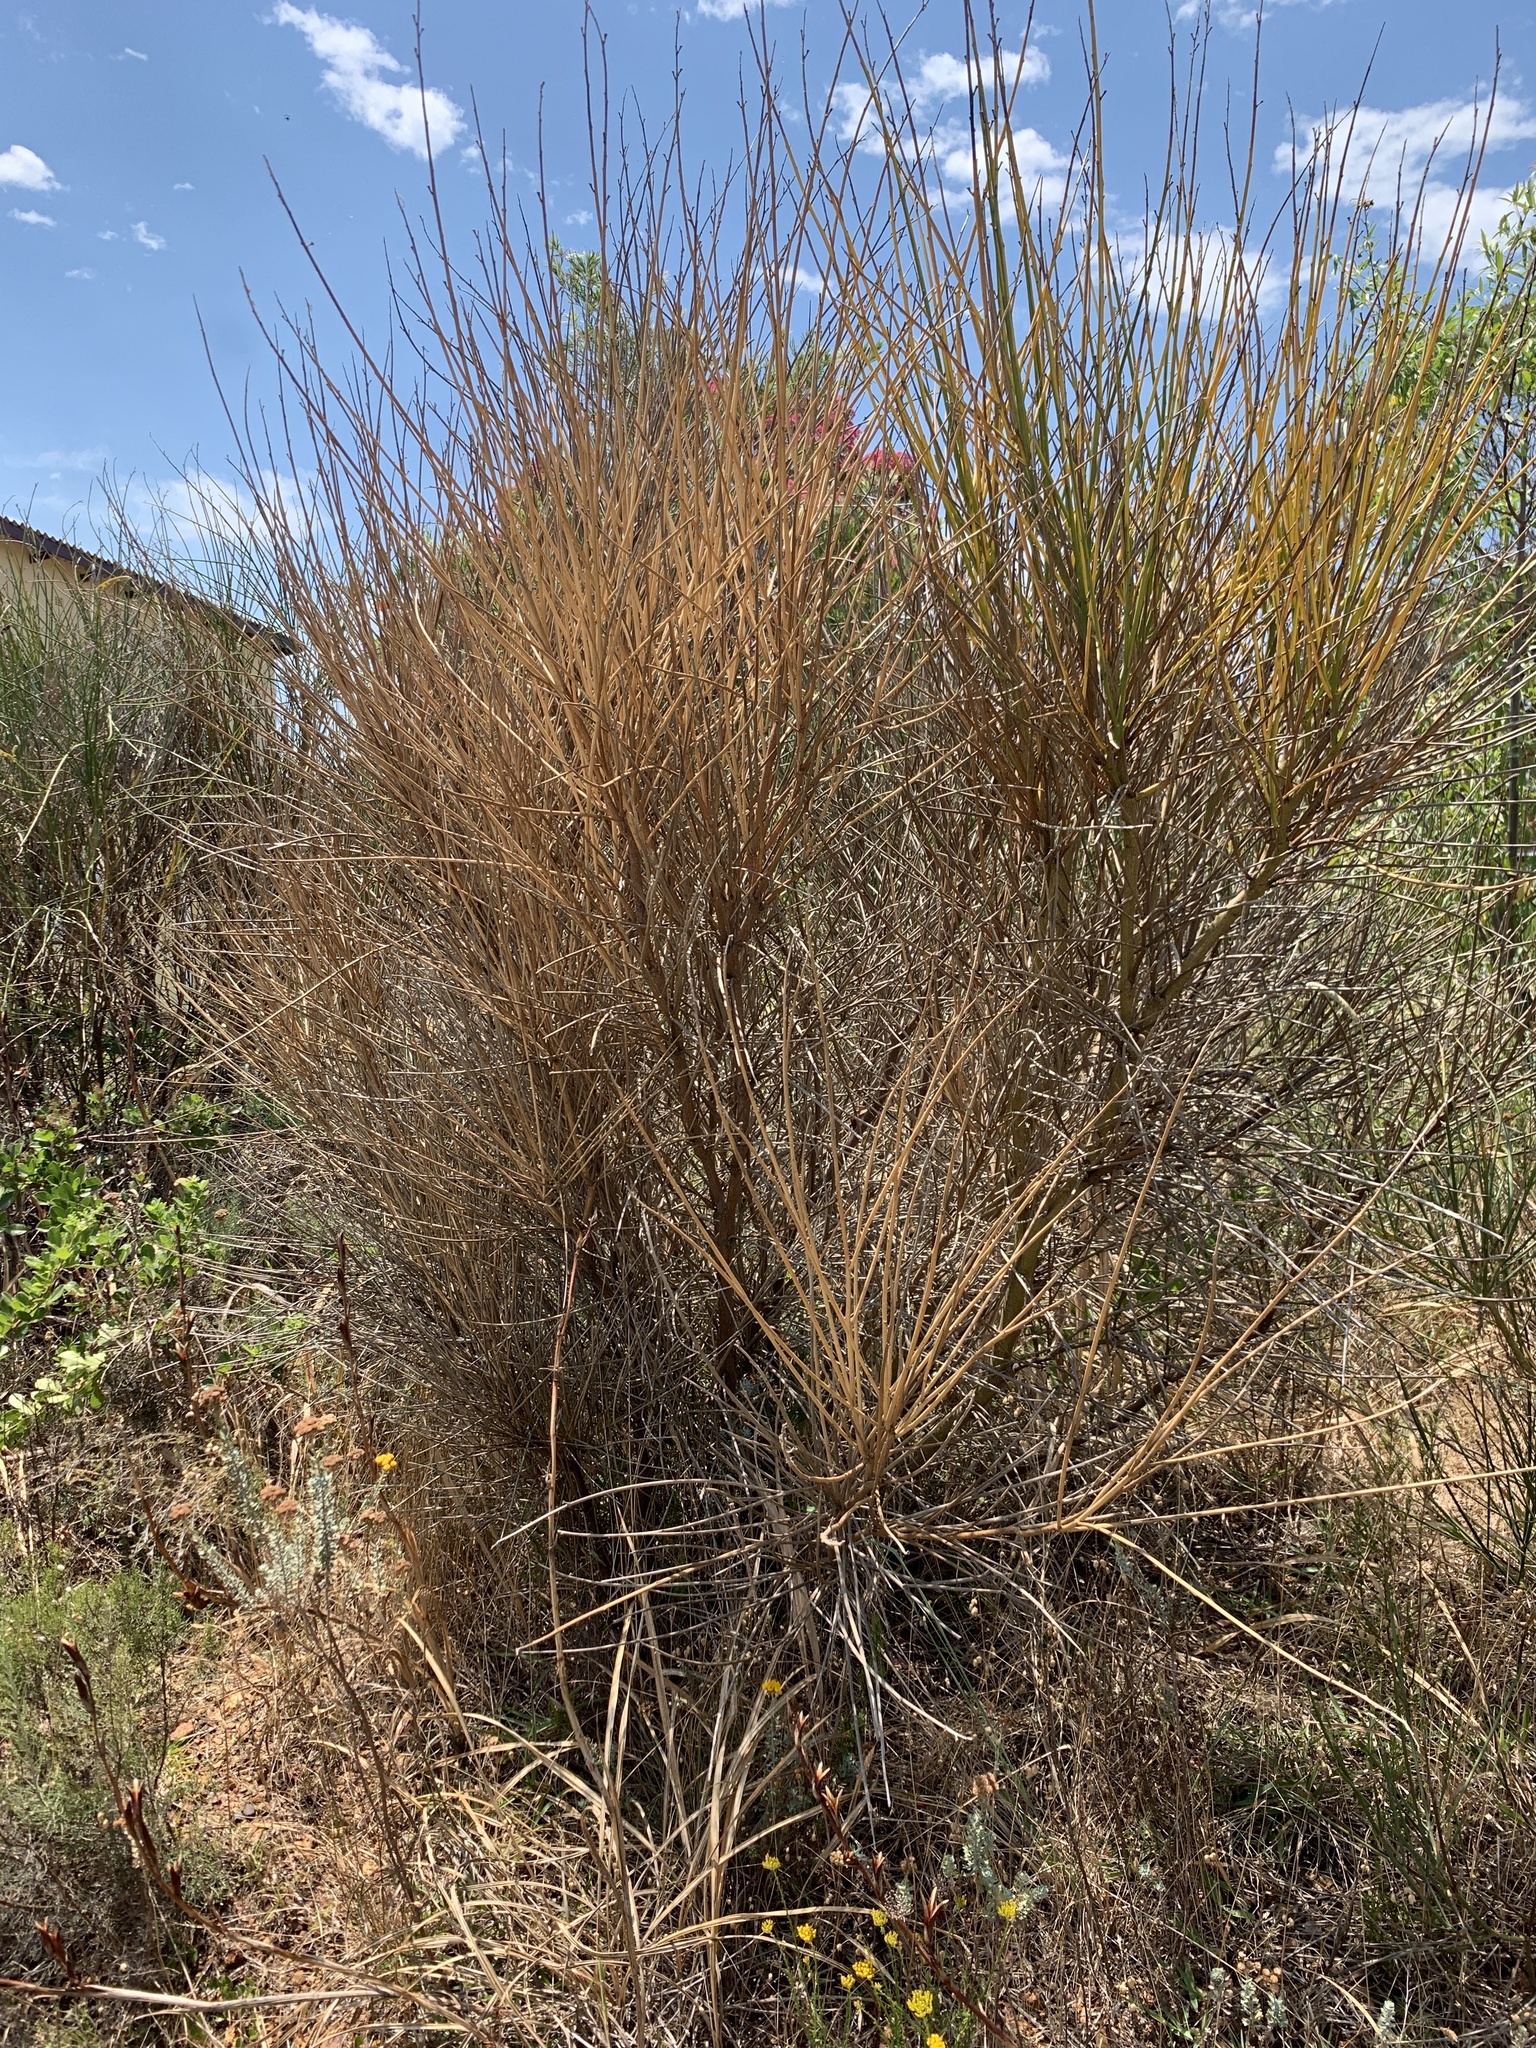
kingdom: Plantae
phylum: Tracheophyta
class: Magnoliopsida
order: Fabales
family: Fabaceae
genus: Spartium
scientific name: Spartium junceum
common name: Spanish broom
